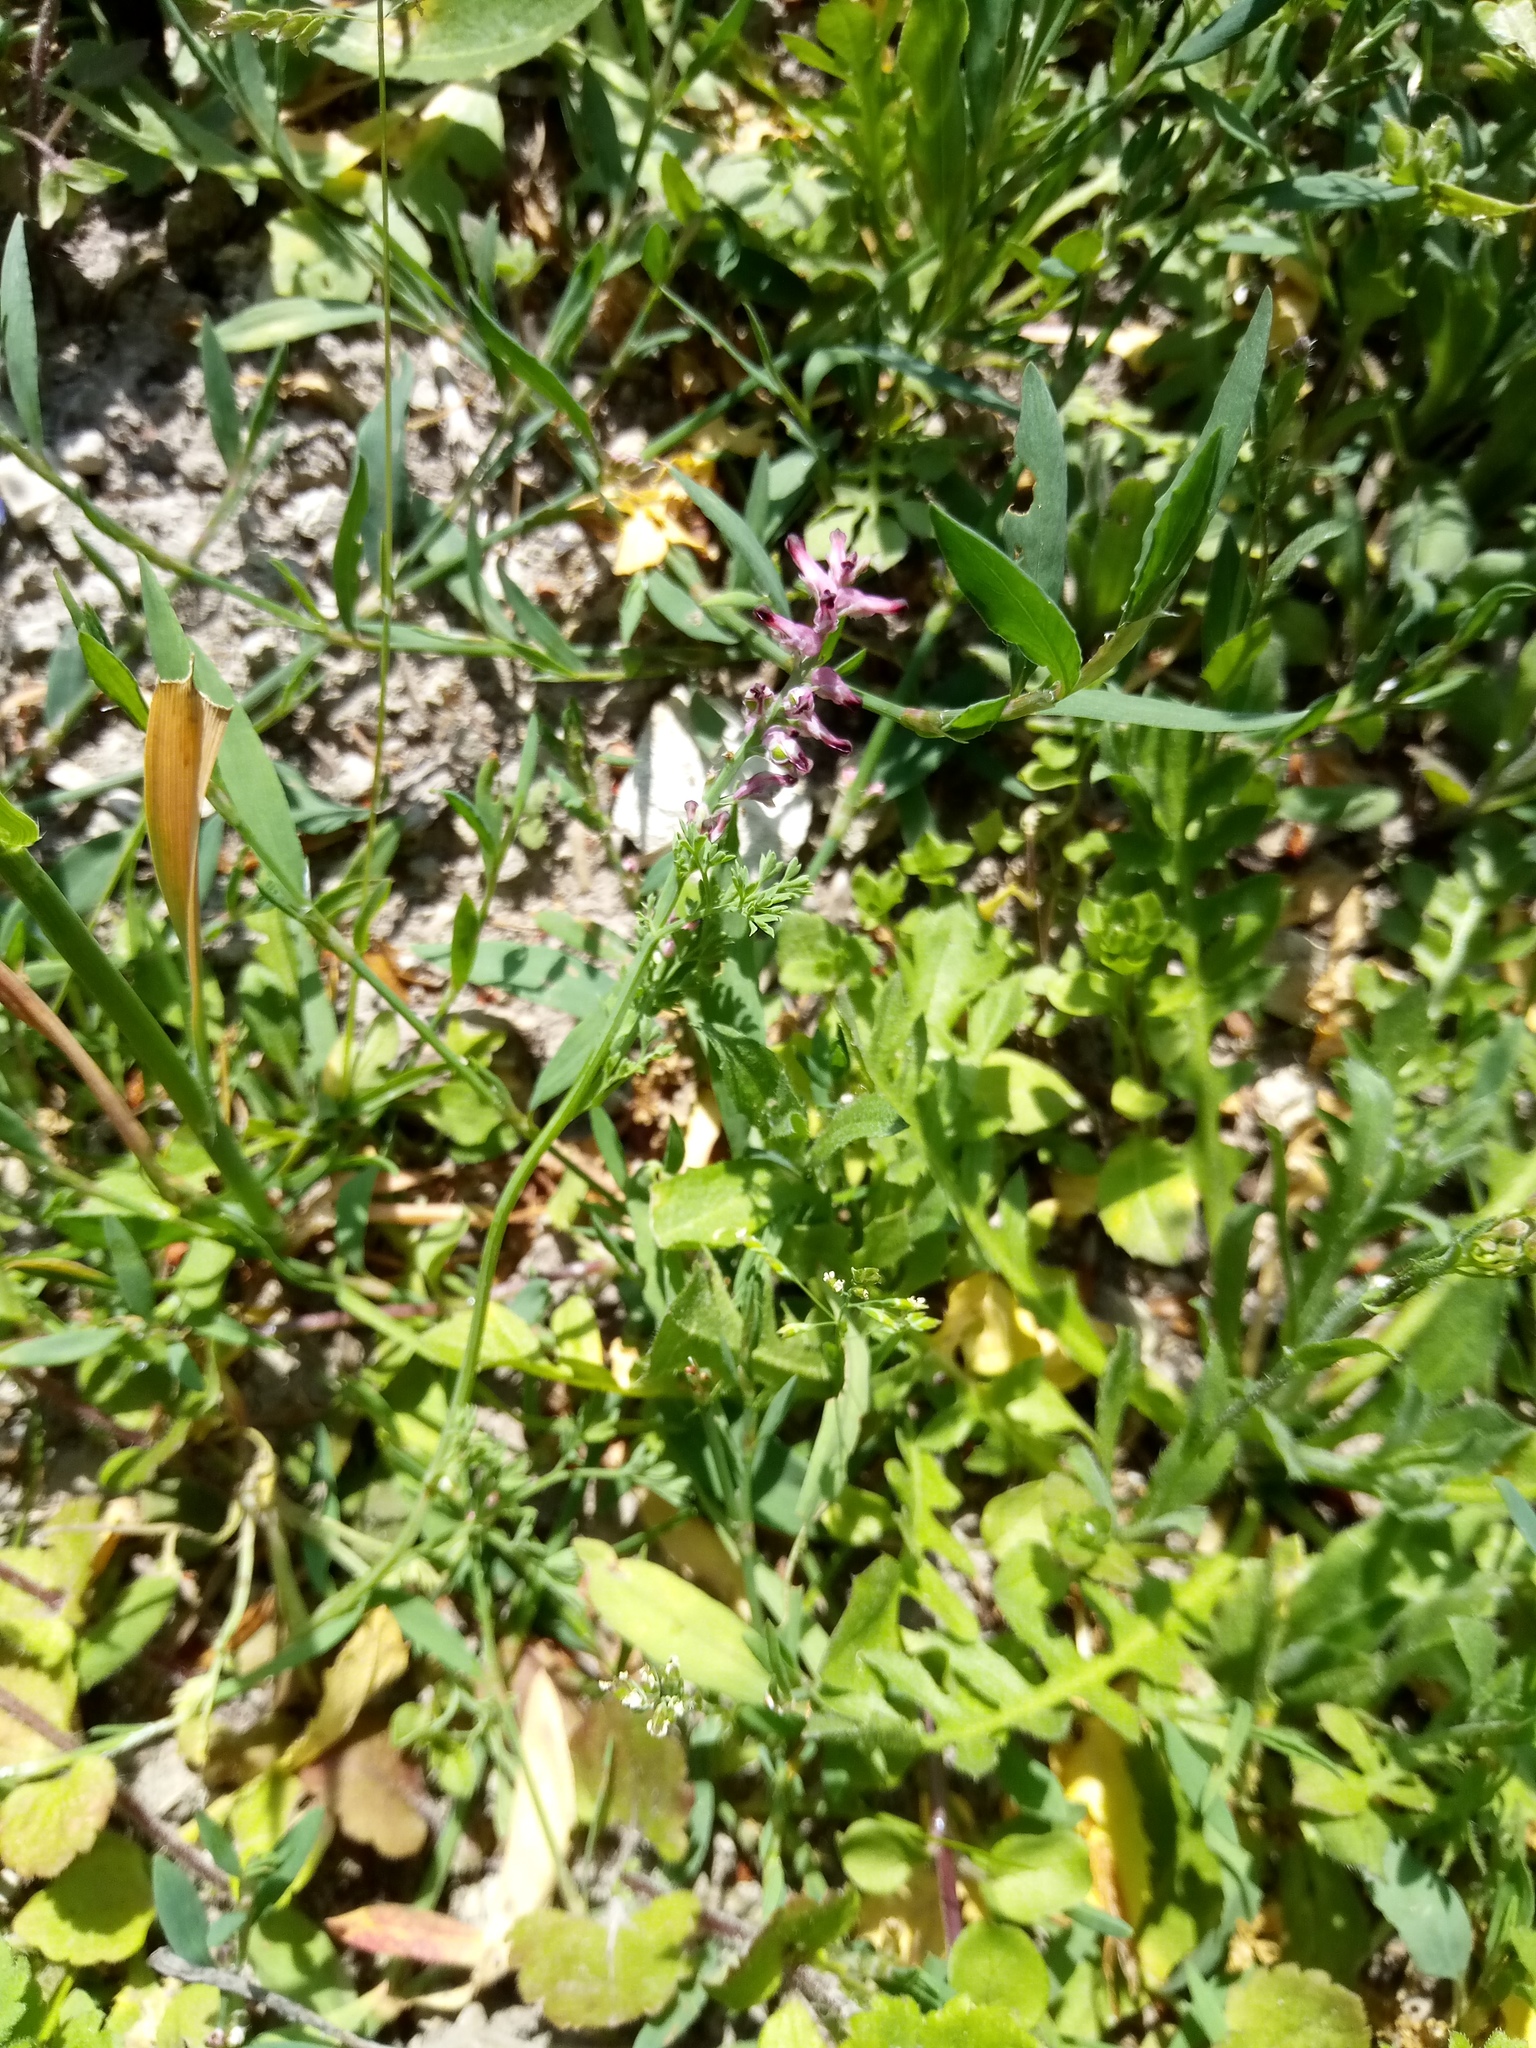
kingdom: Plantae
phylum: Tracheophyta
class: Magnoliopsida
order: Ranunculales
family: Papaveraceae
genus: Fumaria
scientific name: Fumaria officinalis
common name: Common fumitory
